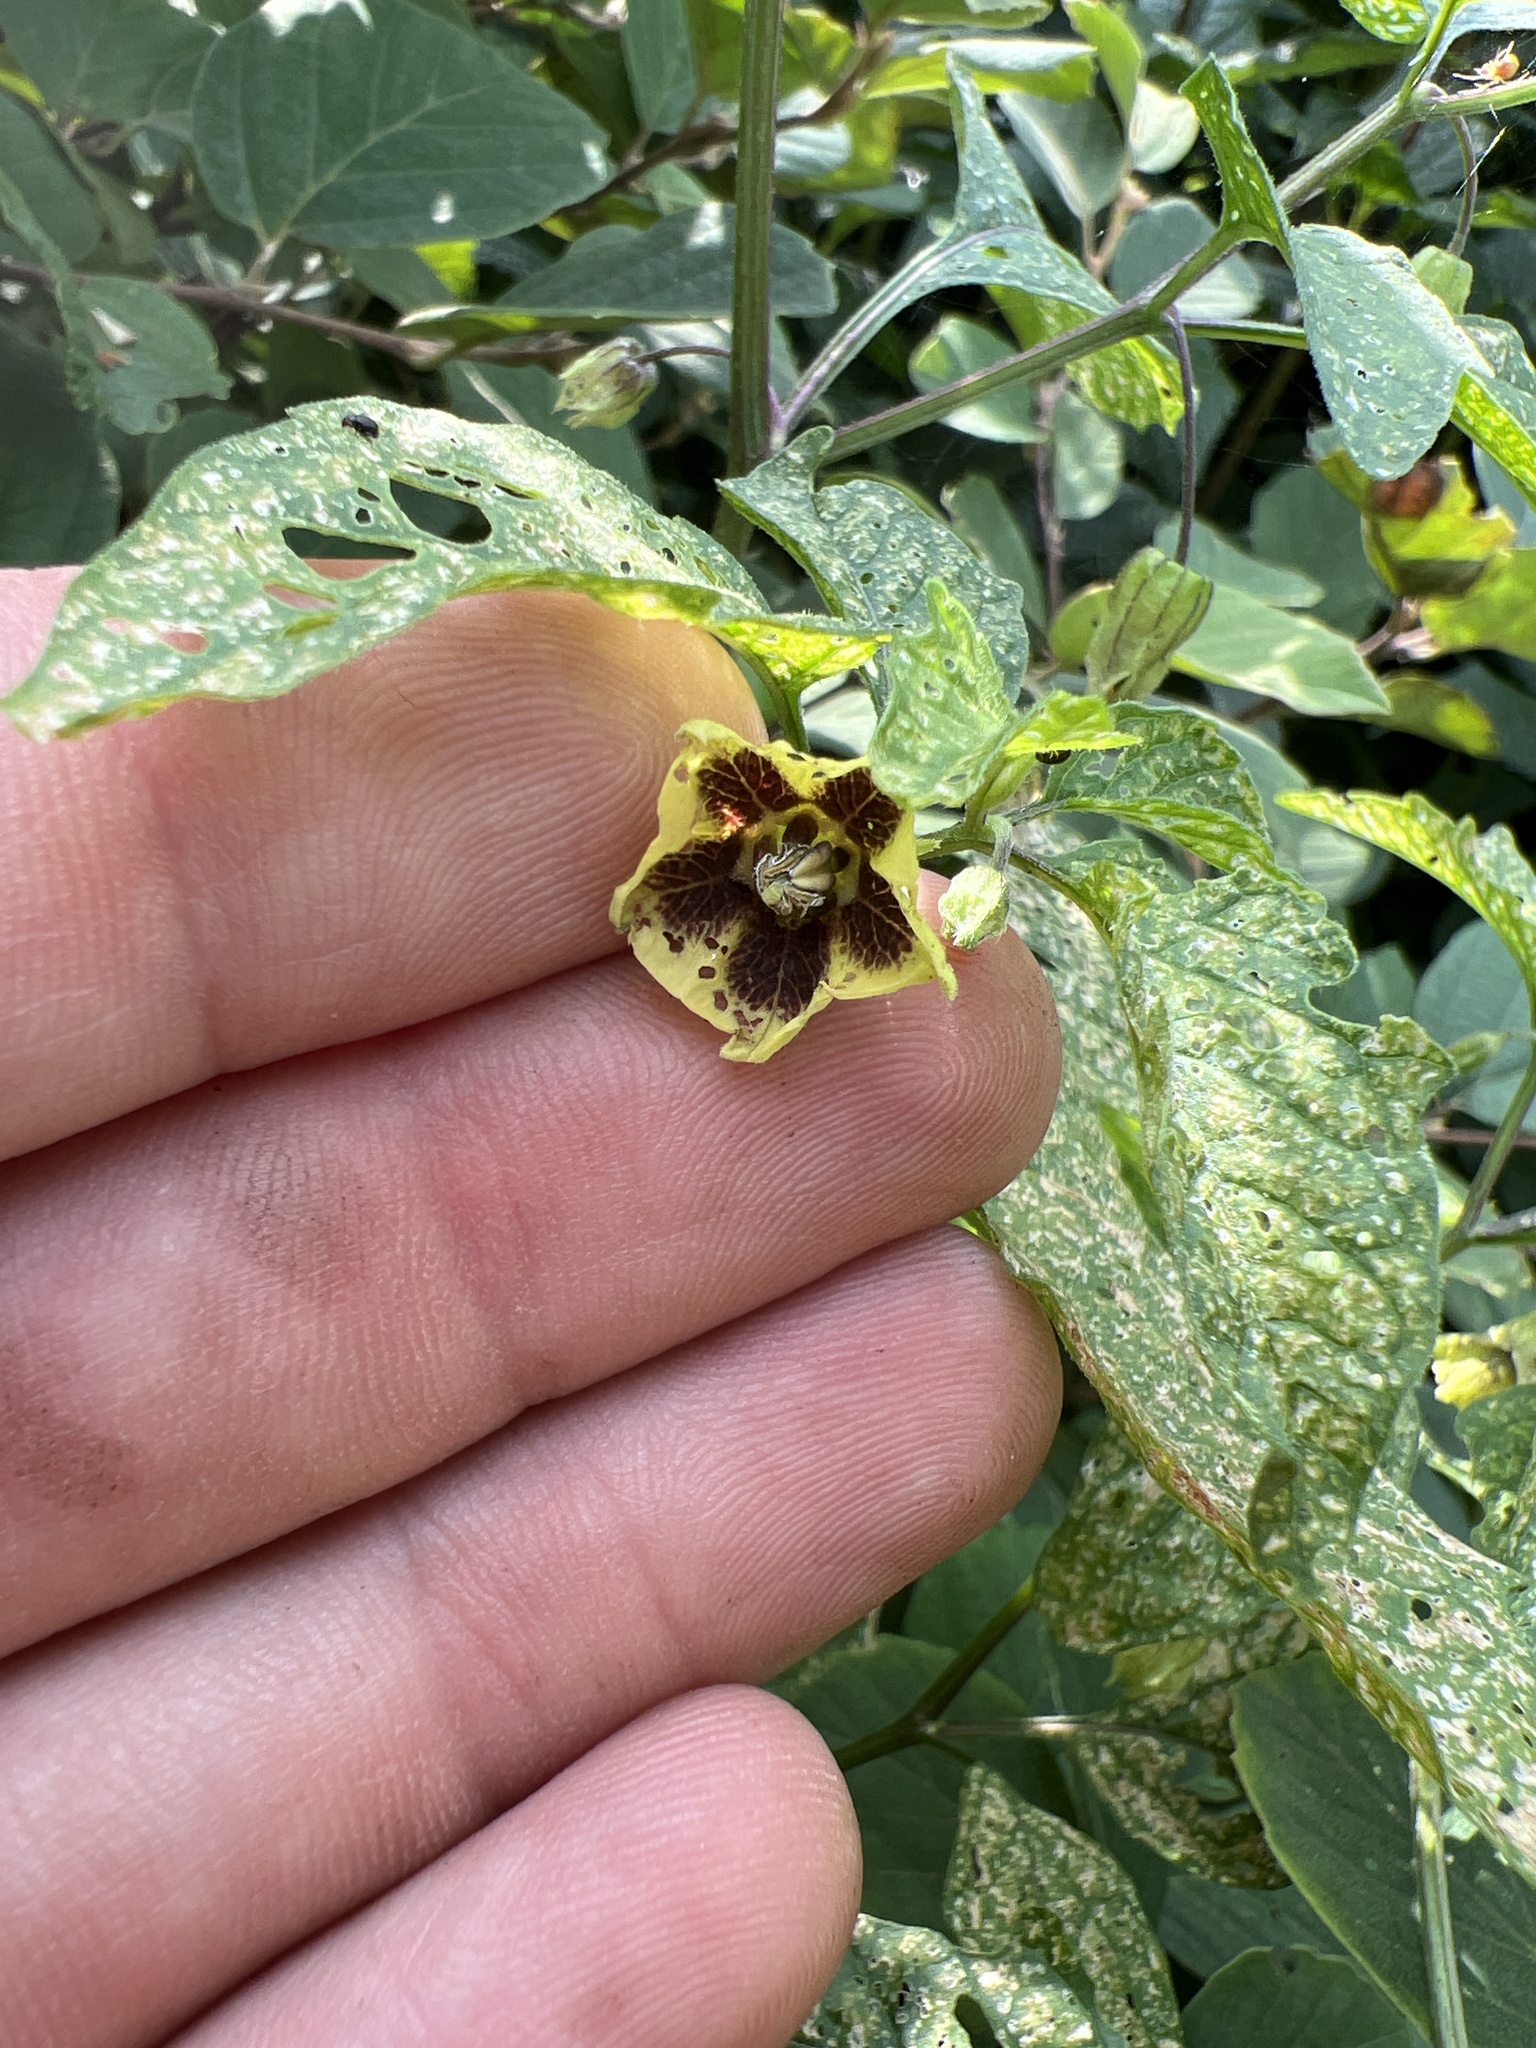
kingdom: Plantae
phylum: Tracheophyta
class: Magnoliopsida
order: Solanales
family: Solanaceae
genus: Physalis
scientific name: Physalis longifolia
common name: Common ground-cherry
